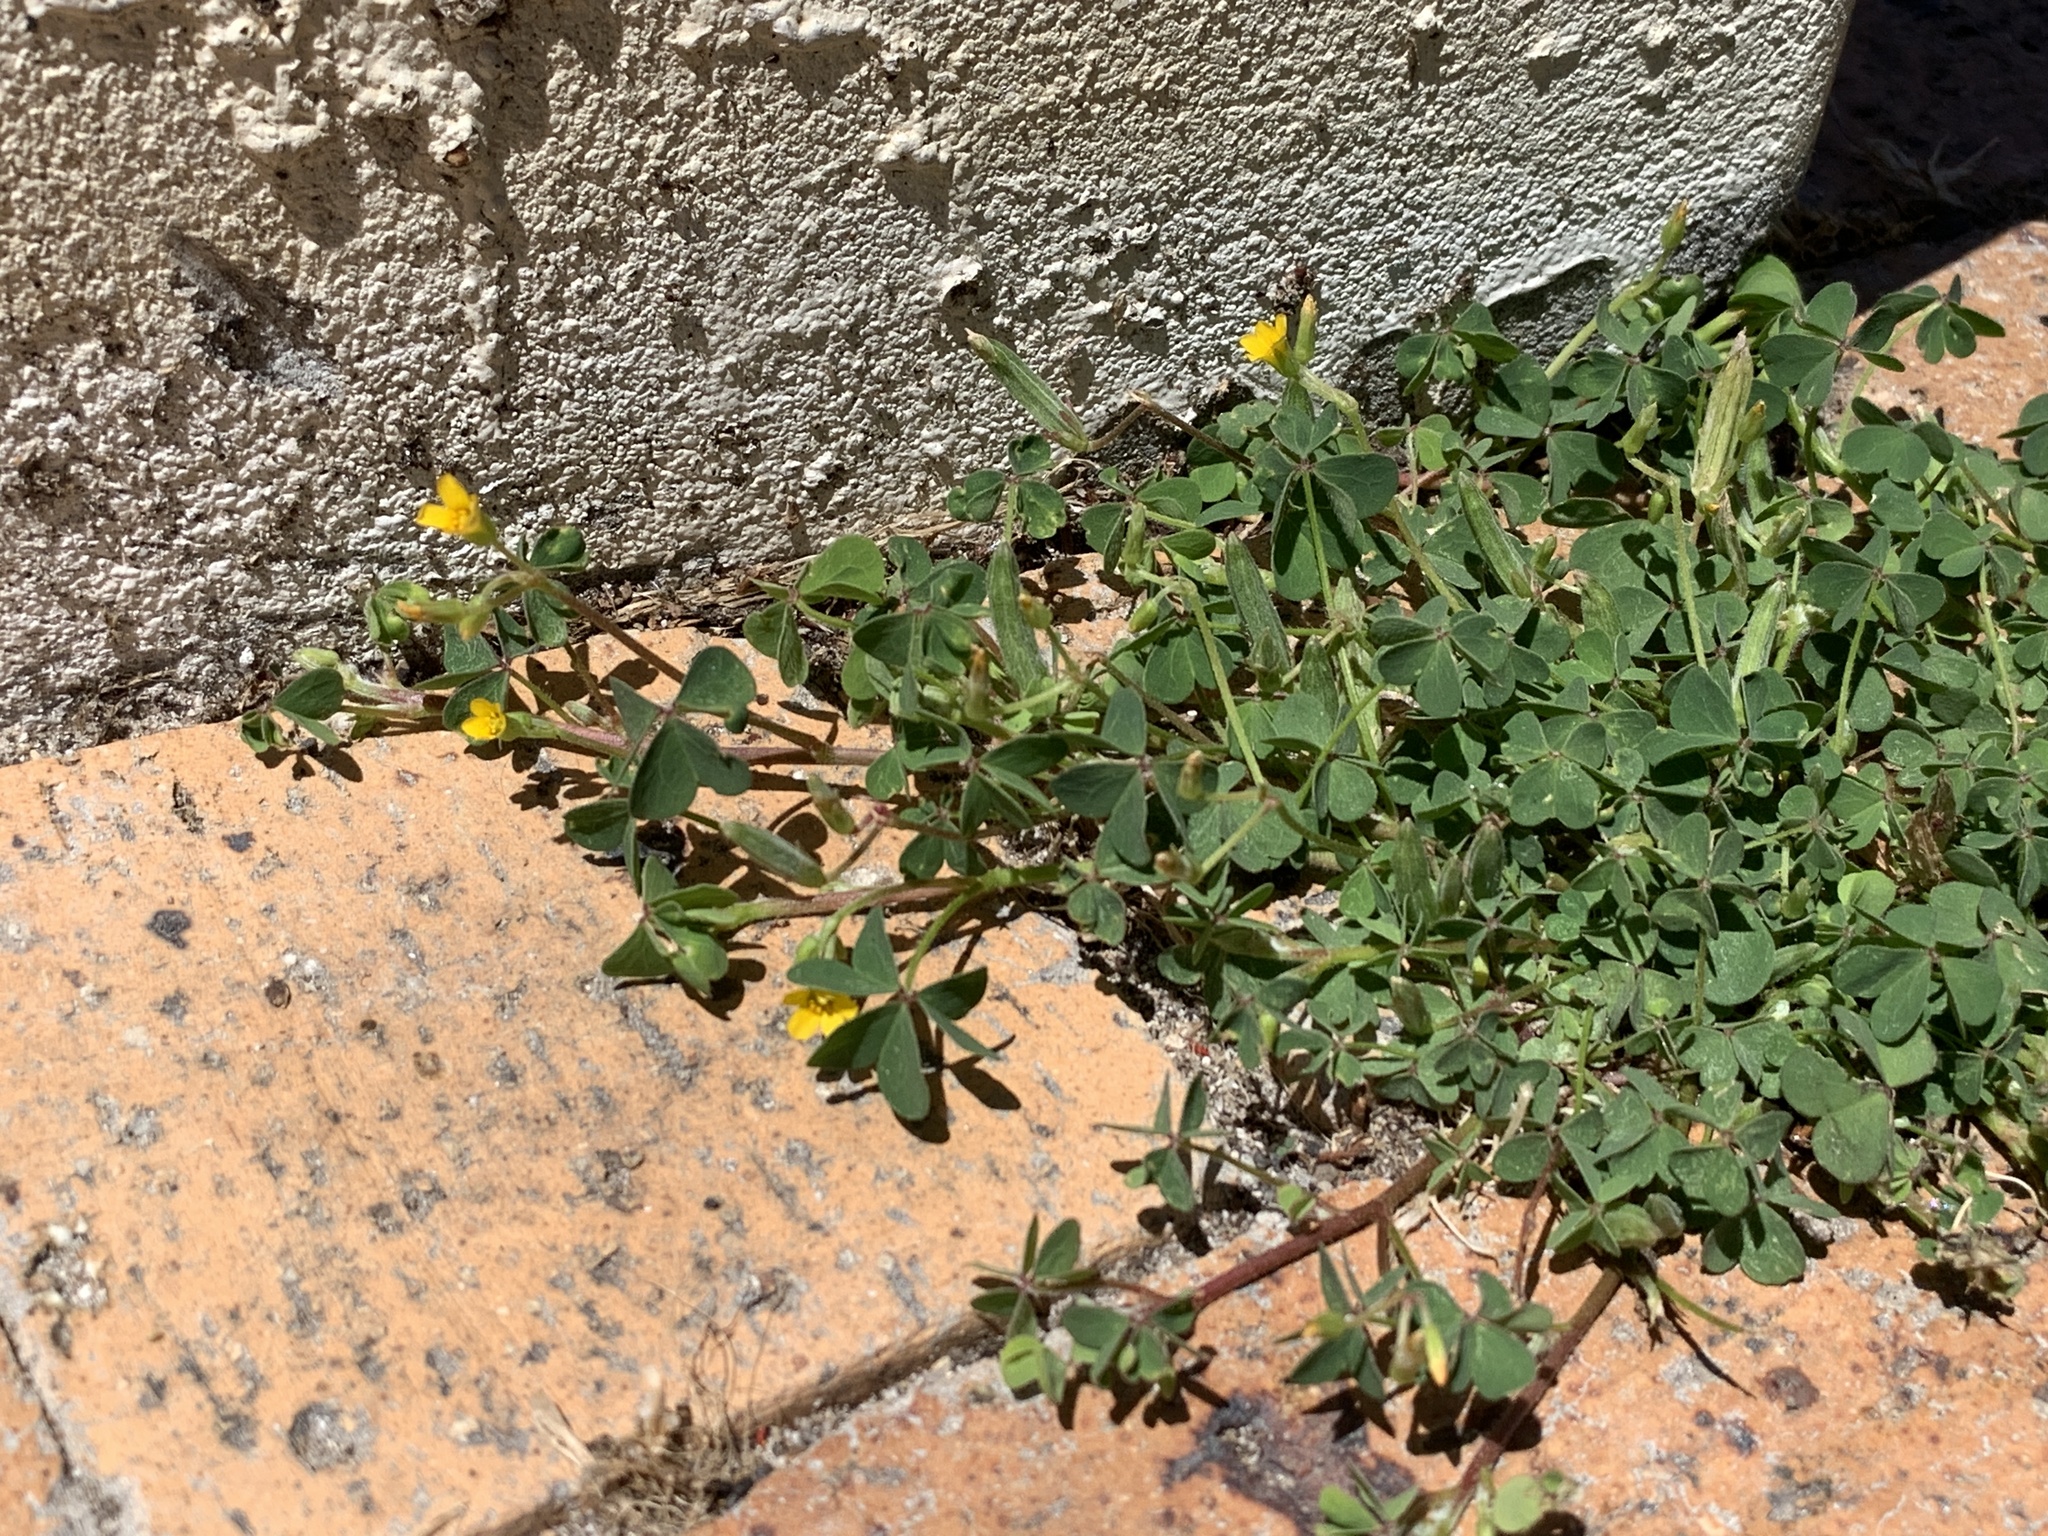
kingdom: Plantae
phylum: Tracheophyta
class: Magnoliopsida
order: Oxalidales
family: Oxalidaceae
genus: Oxalis
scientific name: Oxalis corniculata
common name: Procumbent yellow-sorrel
